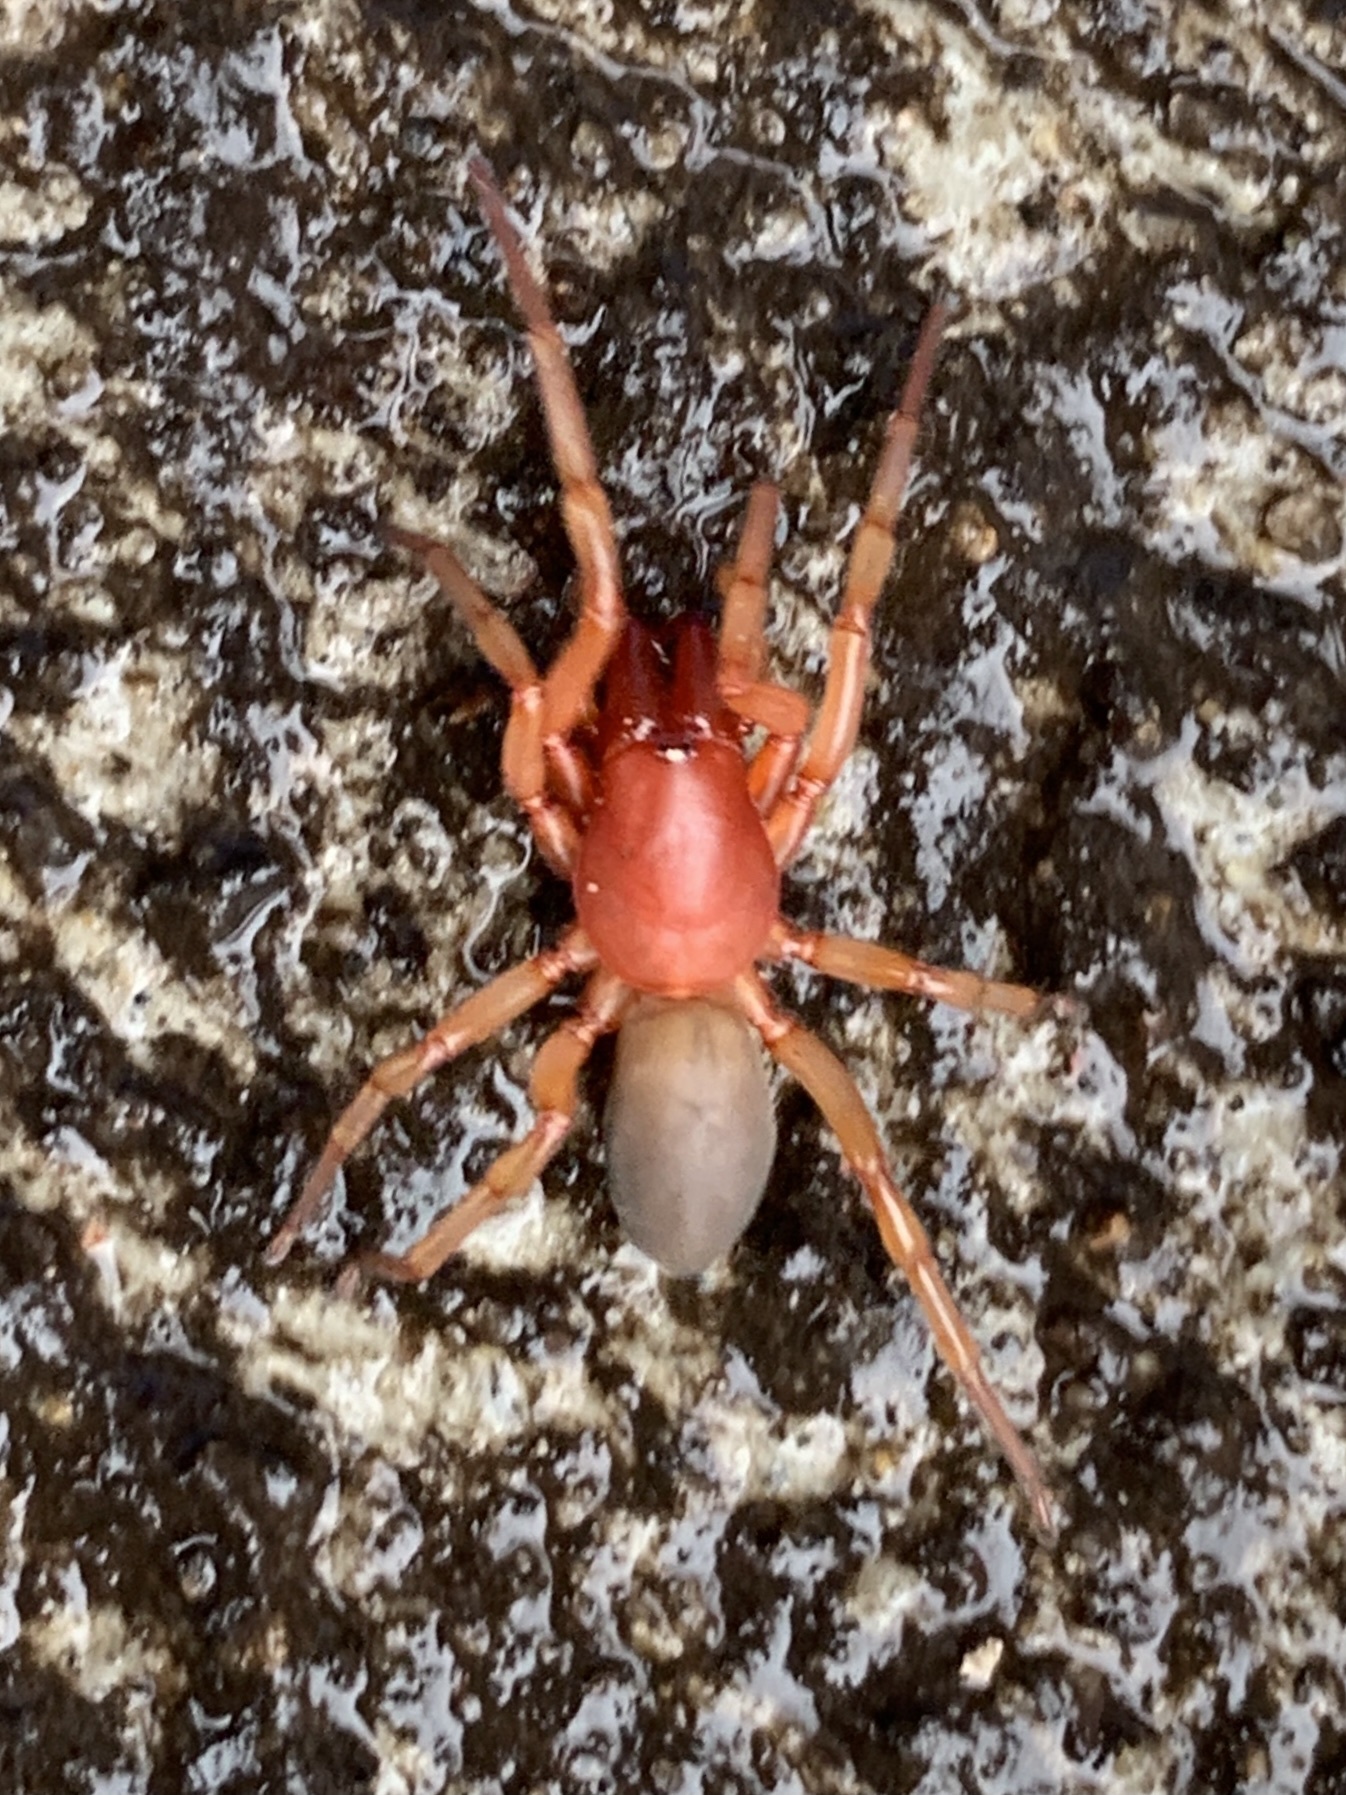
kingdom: Animalia
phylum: Arthropoda
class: Arachnida
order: Araneae
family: Dysderidae
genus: Dysdera
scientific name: Dysdera crocata
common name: Woodlouse spider
